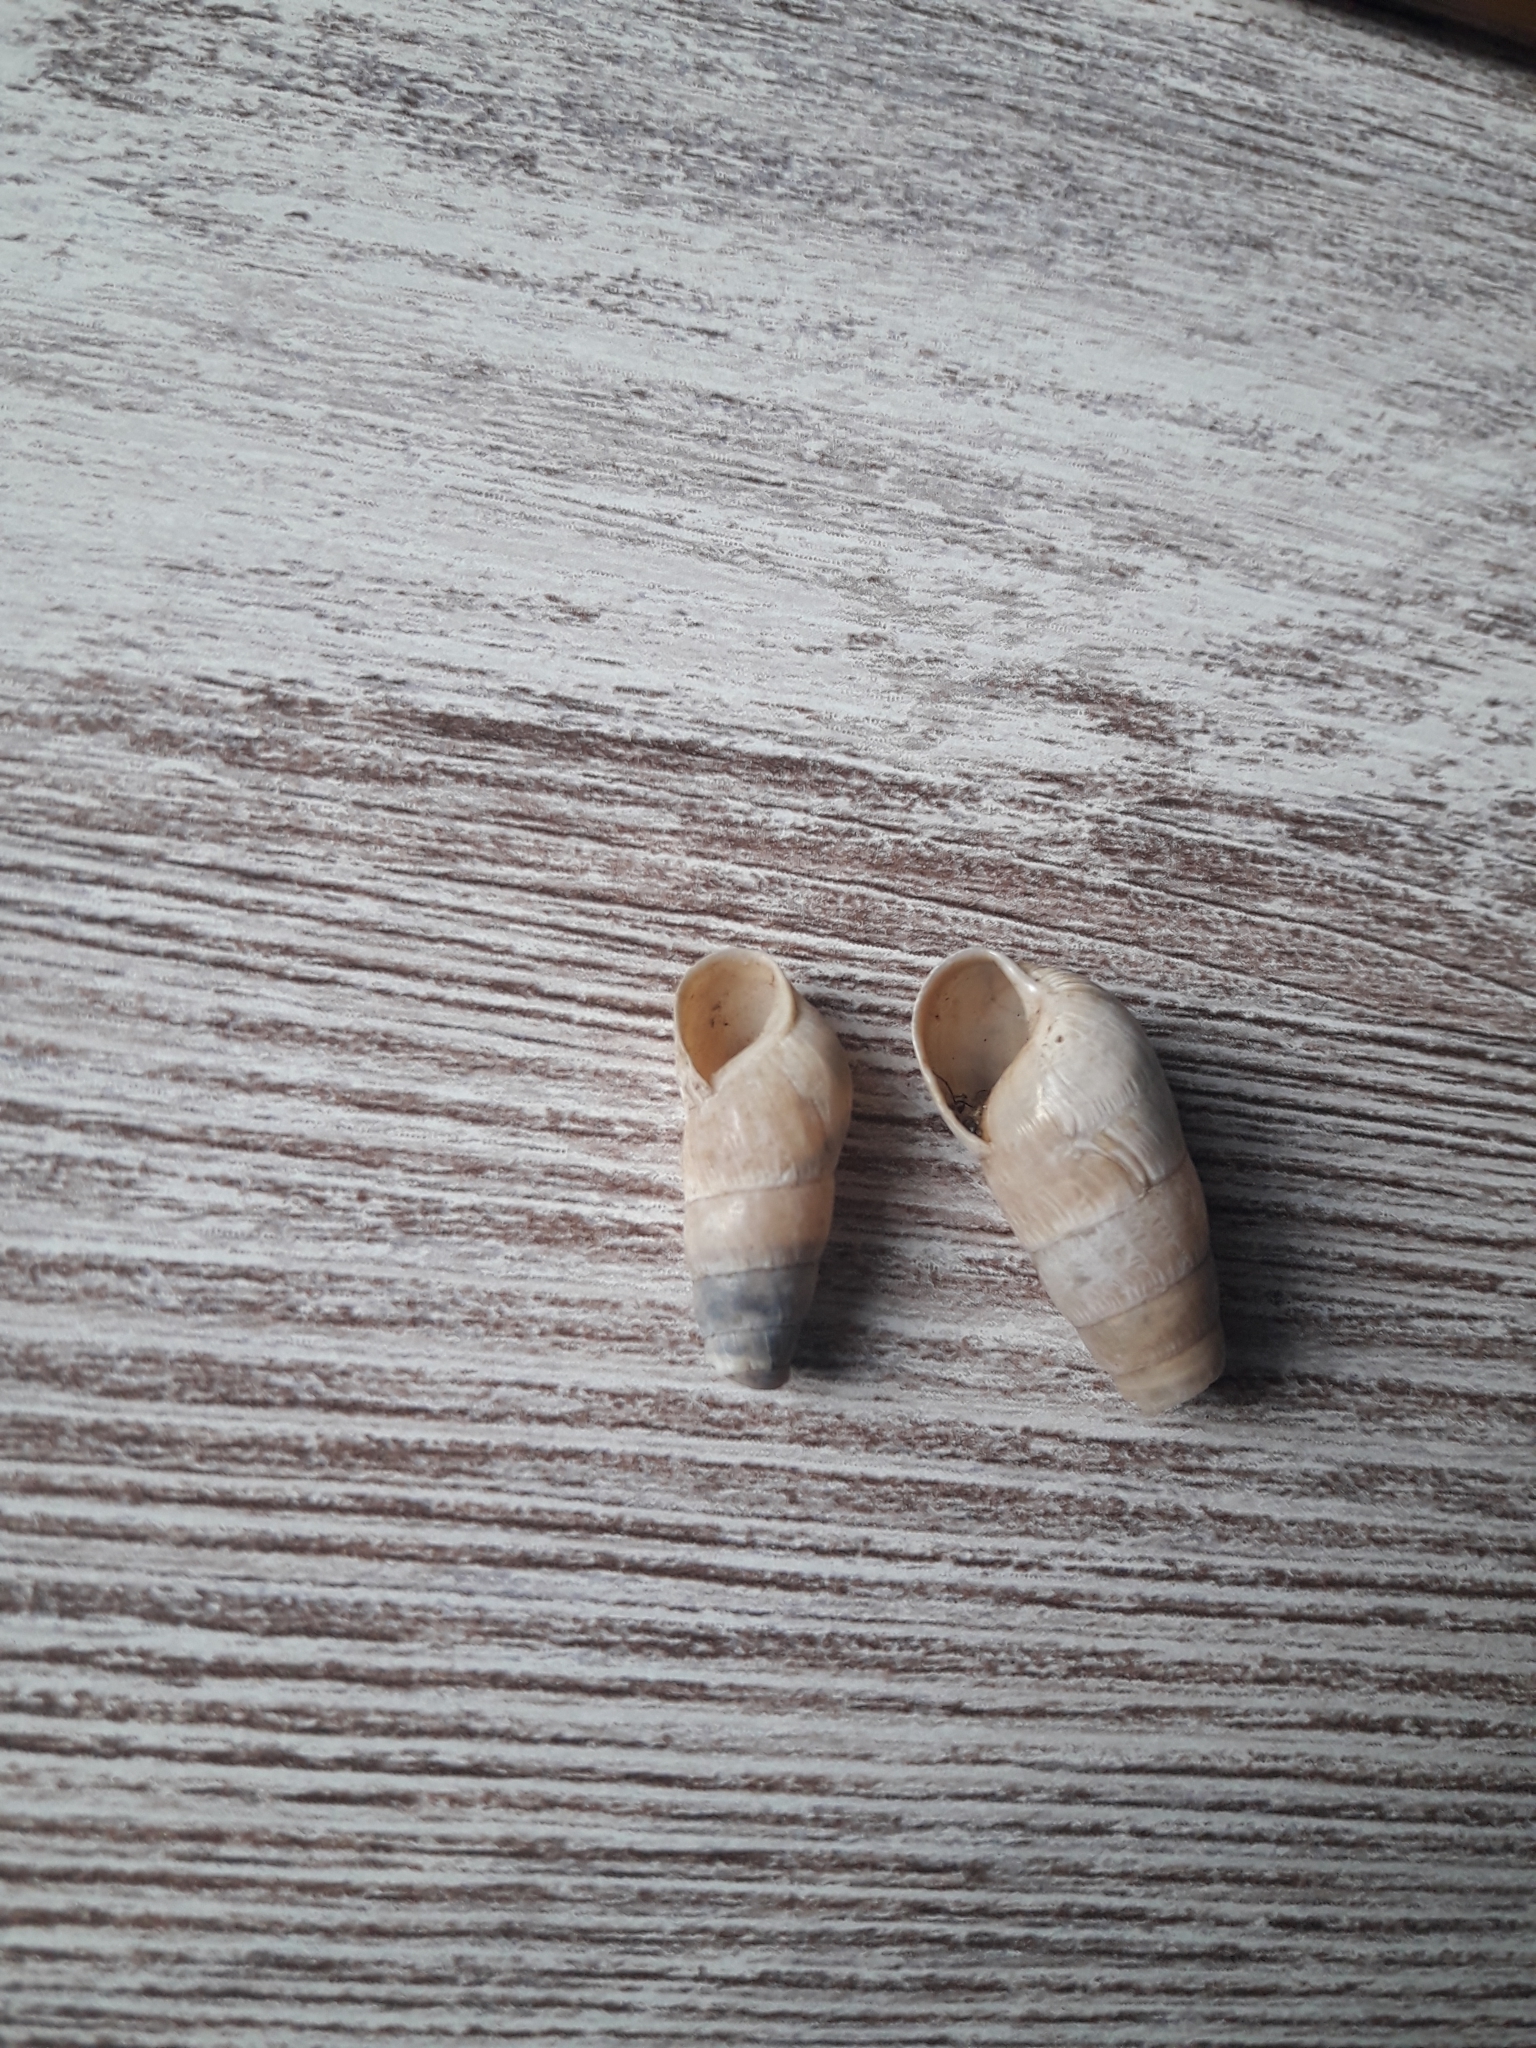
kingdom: Animalia
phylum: Mollusca
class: Gastropoda
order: Stylommatophora
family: Achatinidae
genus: Rumina
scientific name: Rumina decollata
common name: Decollate snail
